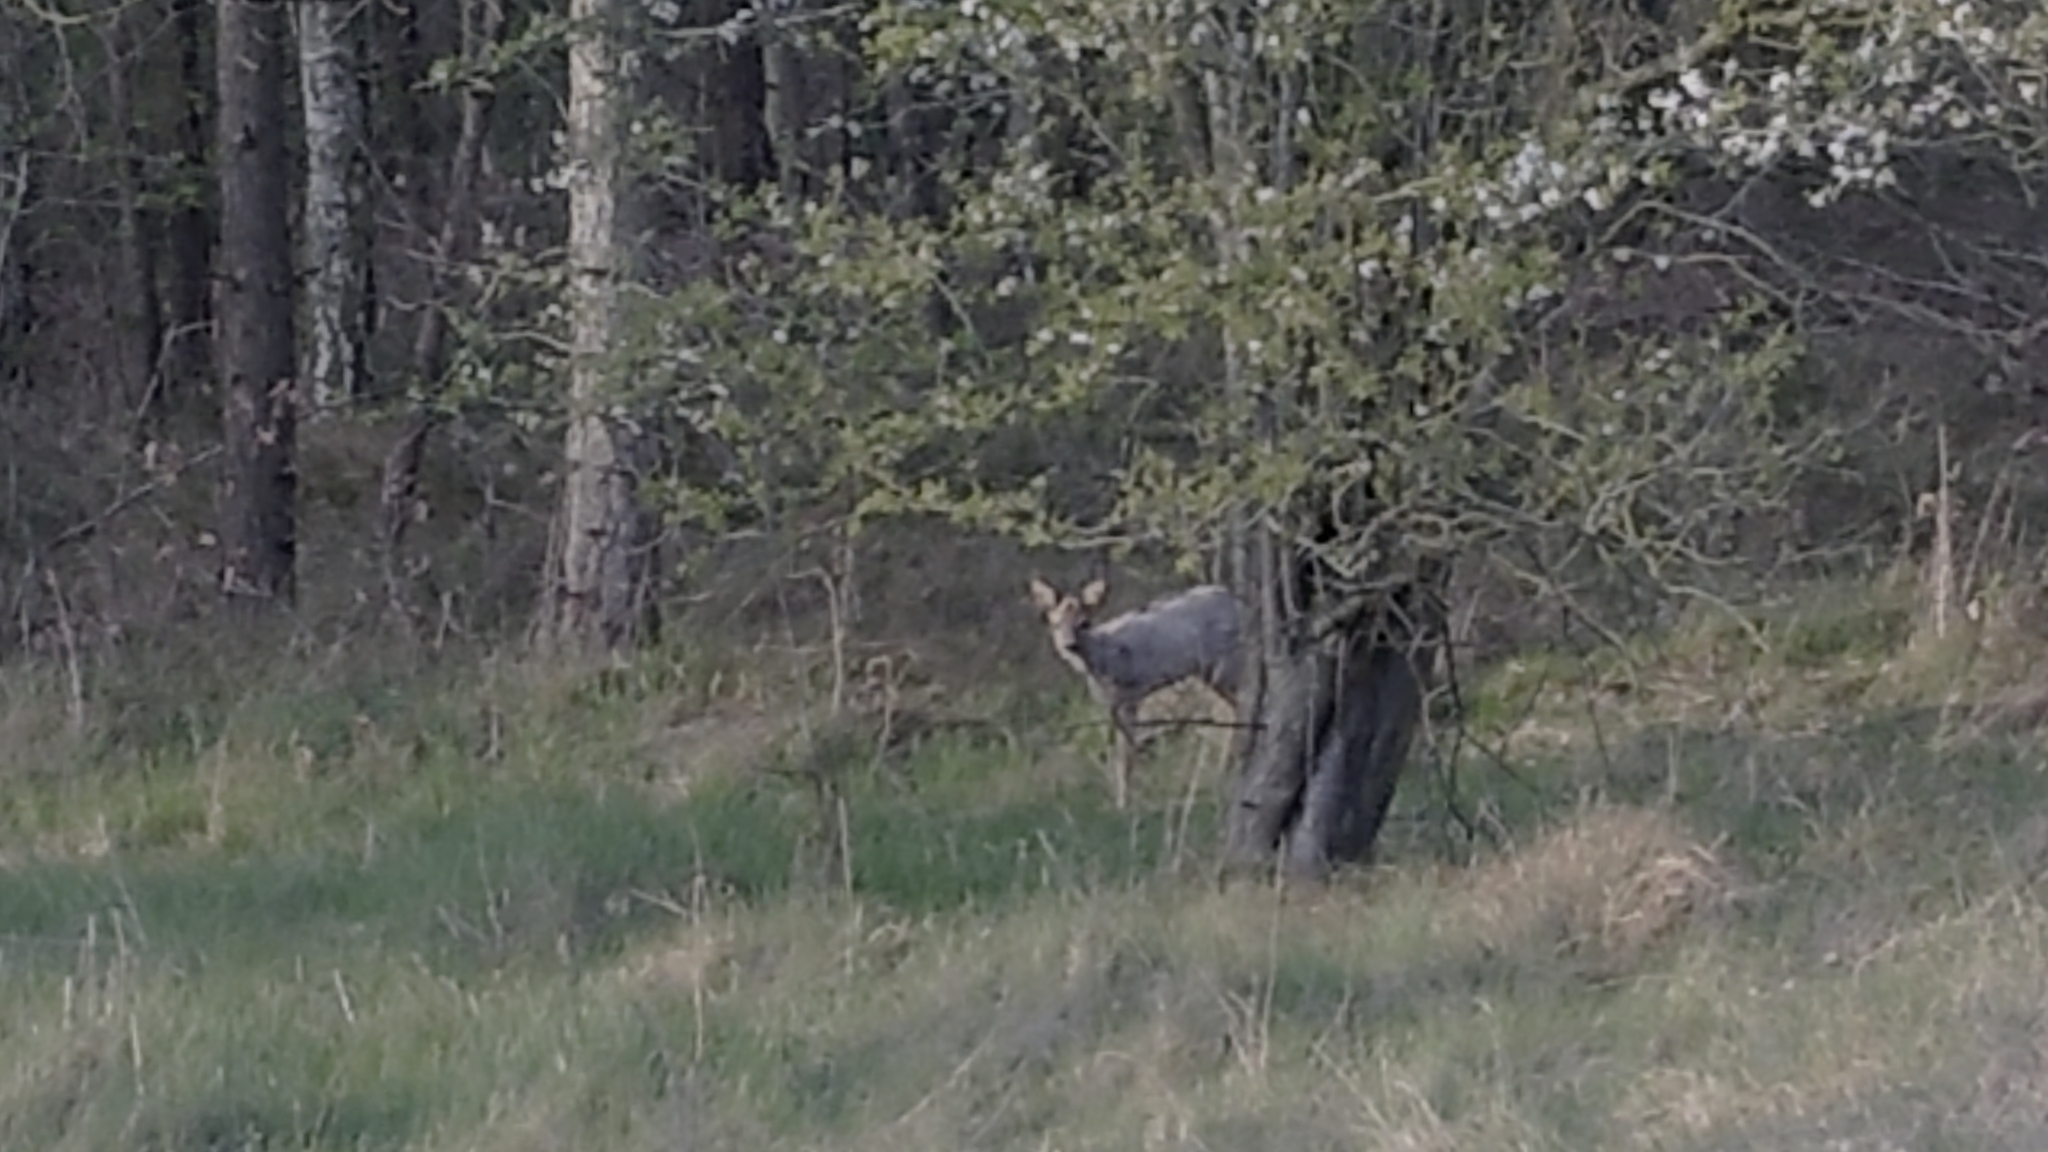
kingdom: Animalia
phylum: Chordata
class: Mammalia
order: Artiodactyla
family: Cervidae
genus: Capreolus
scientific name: Capreolus capreolus
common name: Western roe deer
